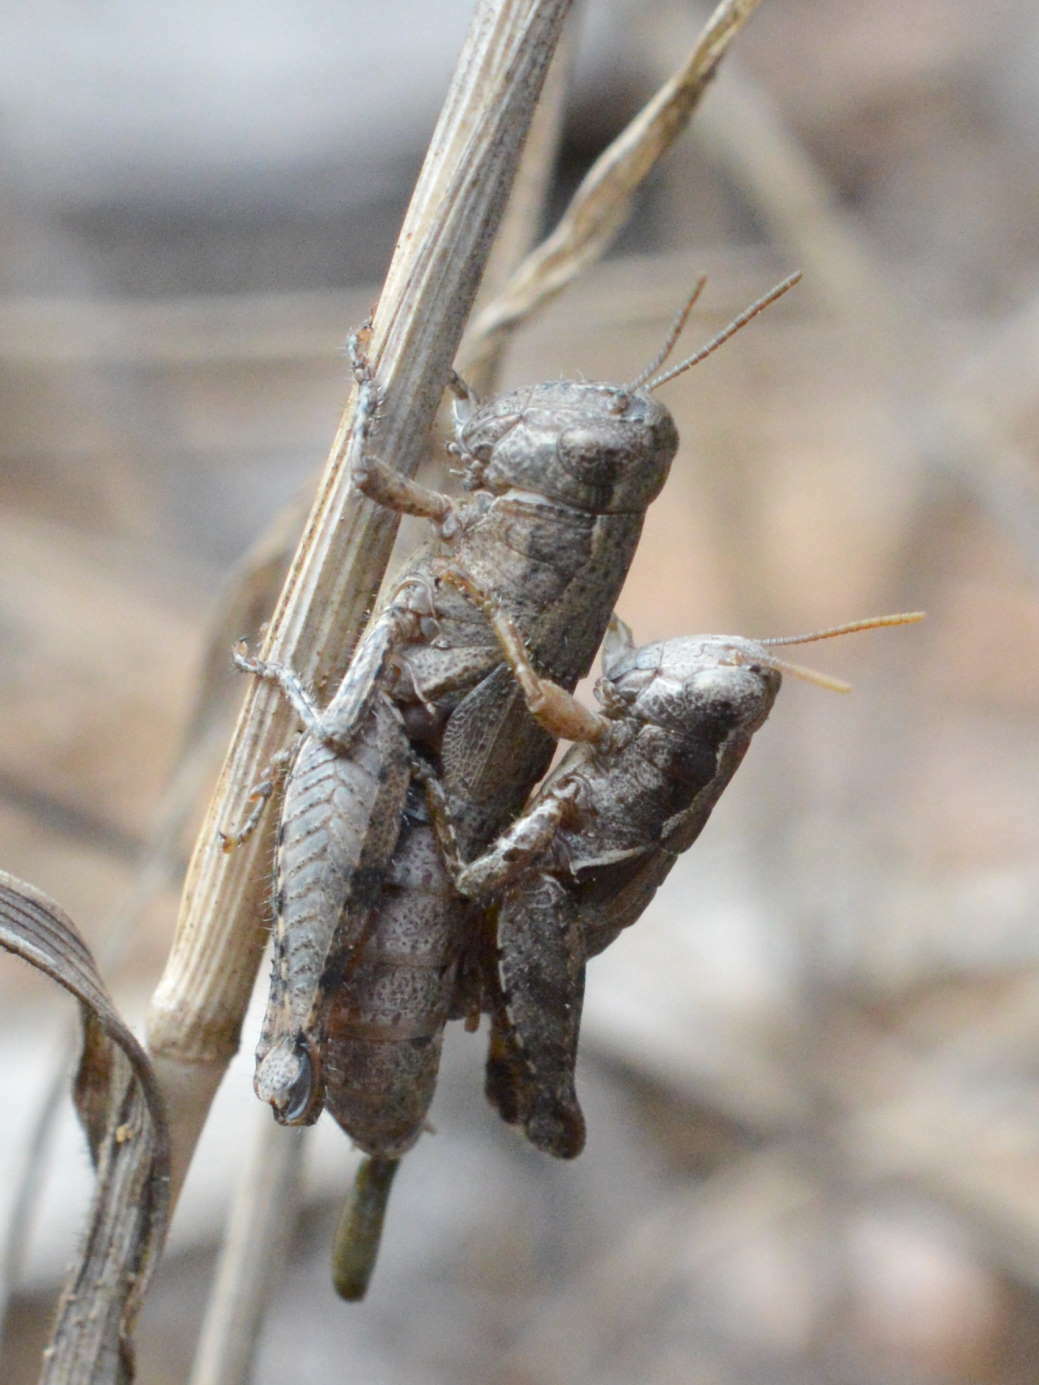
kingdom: Animalia
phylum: Arthropoda
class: Insecta
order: Orthoptera
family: Acrididae
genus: Pezotettix
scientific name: Pezotettix giornae
